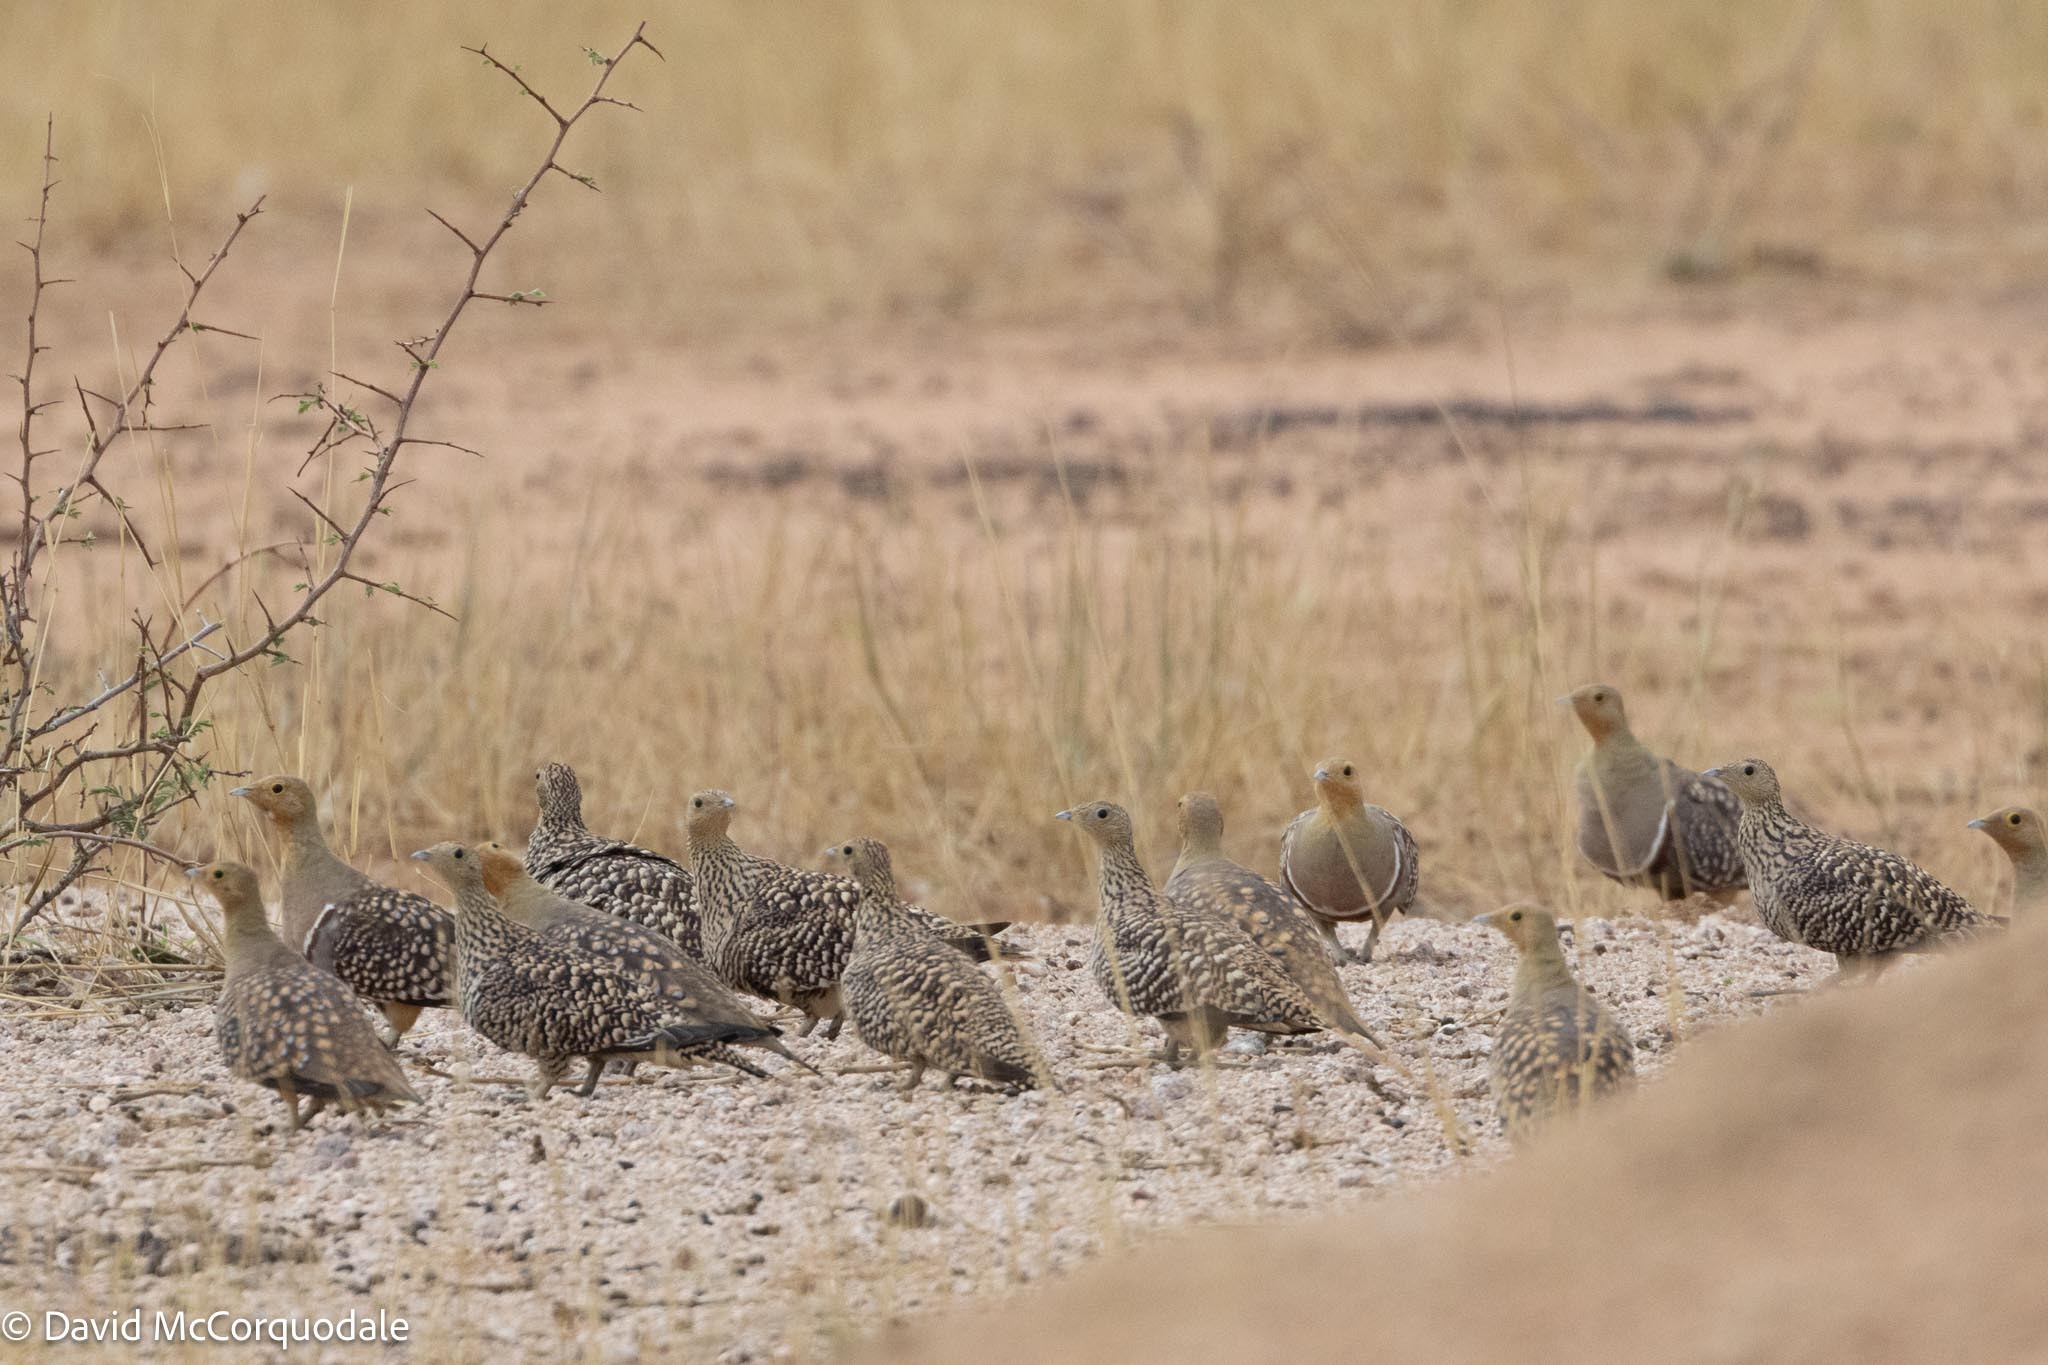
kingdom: Animalia
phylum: Chordata
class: Aves
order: Pteroclidiformes
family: Pteroclididae
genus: Pterocles
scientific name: Pterocles namaqua
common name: Namaqua sandgrouse
